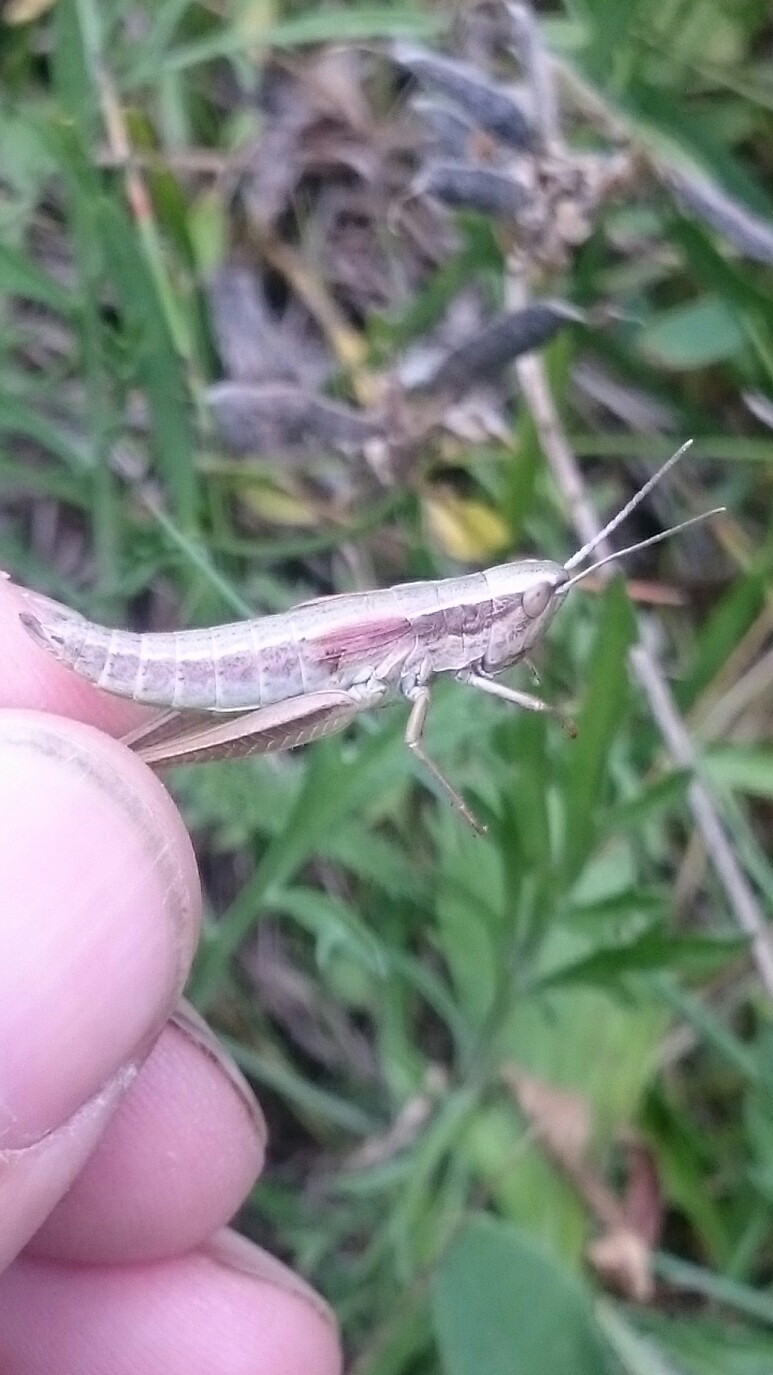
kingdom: Animalia
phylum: Arthropoda
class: Insecta
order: Orthoptera
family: Acrididae
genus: Euthystira
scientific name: Euthystira brachyptera
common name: Small gold grasshopper
